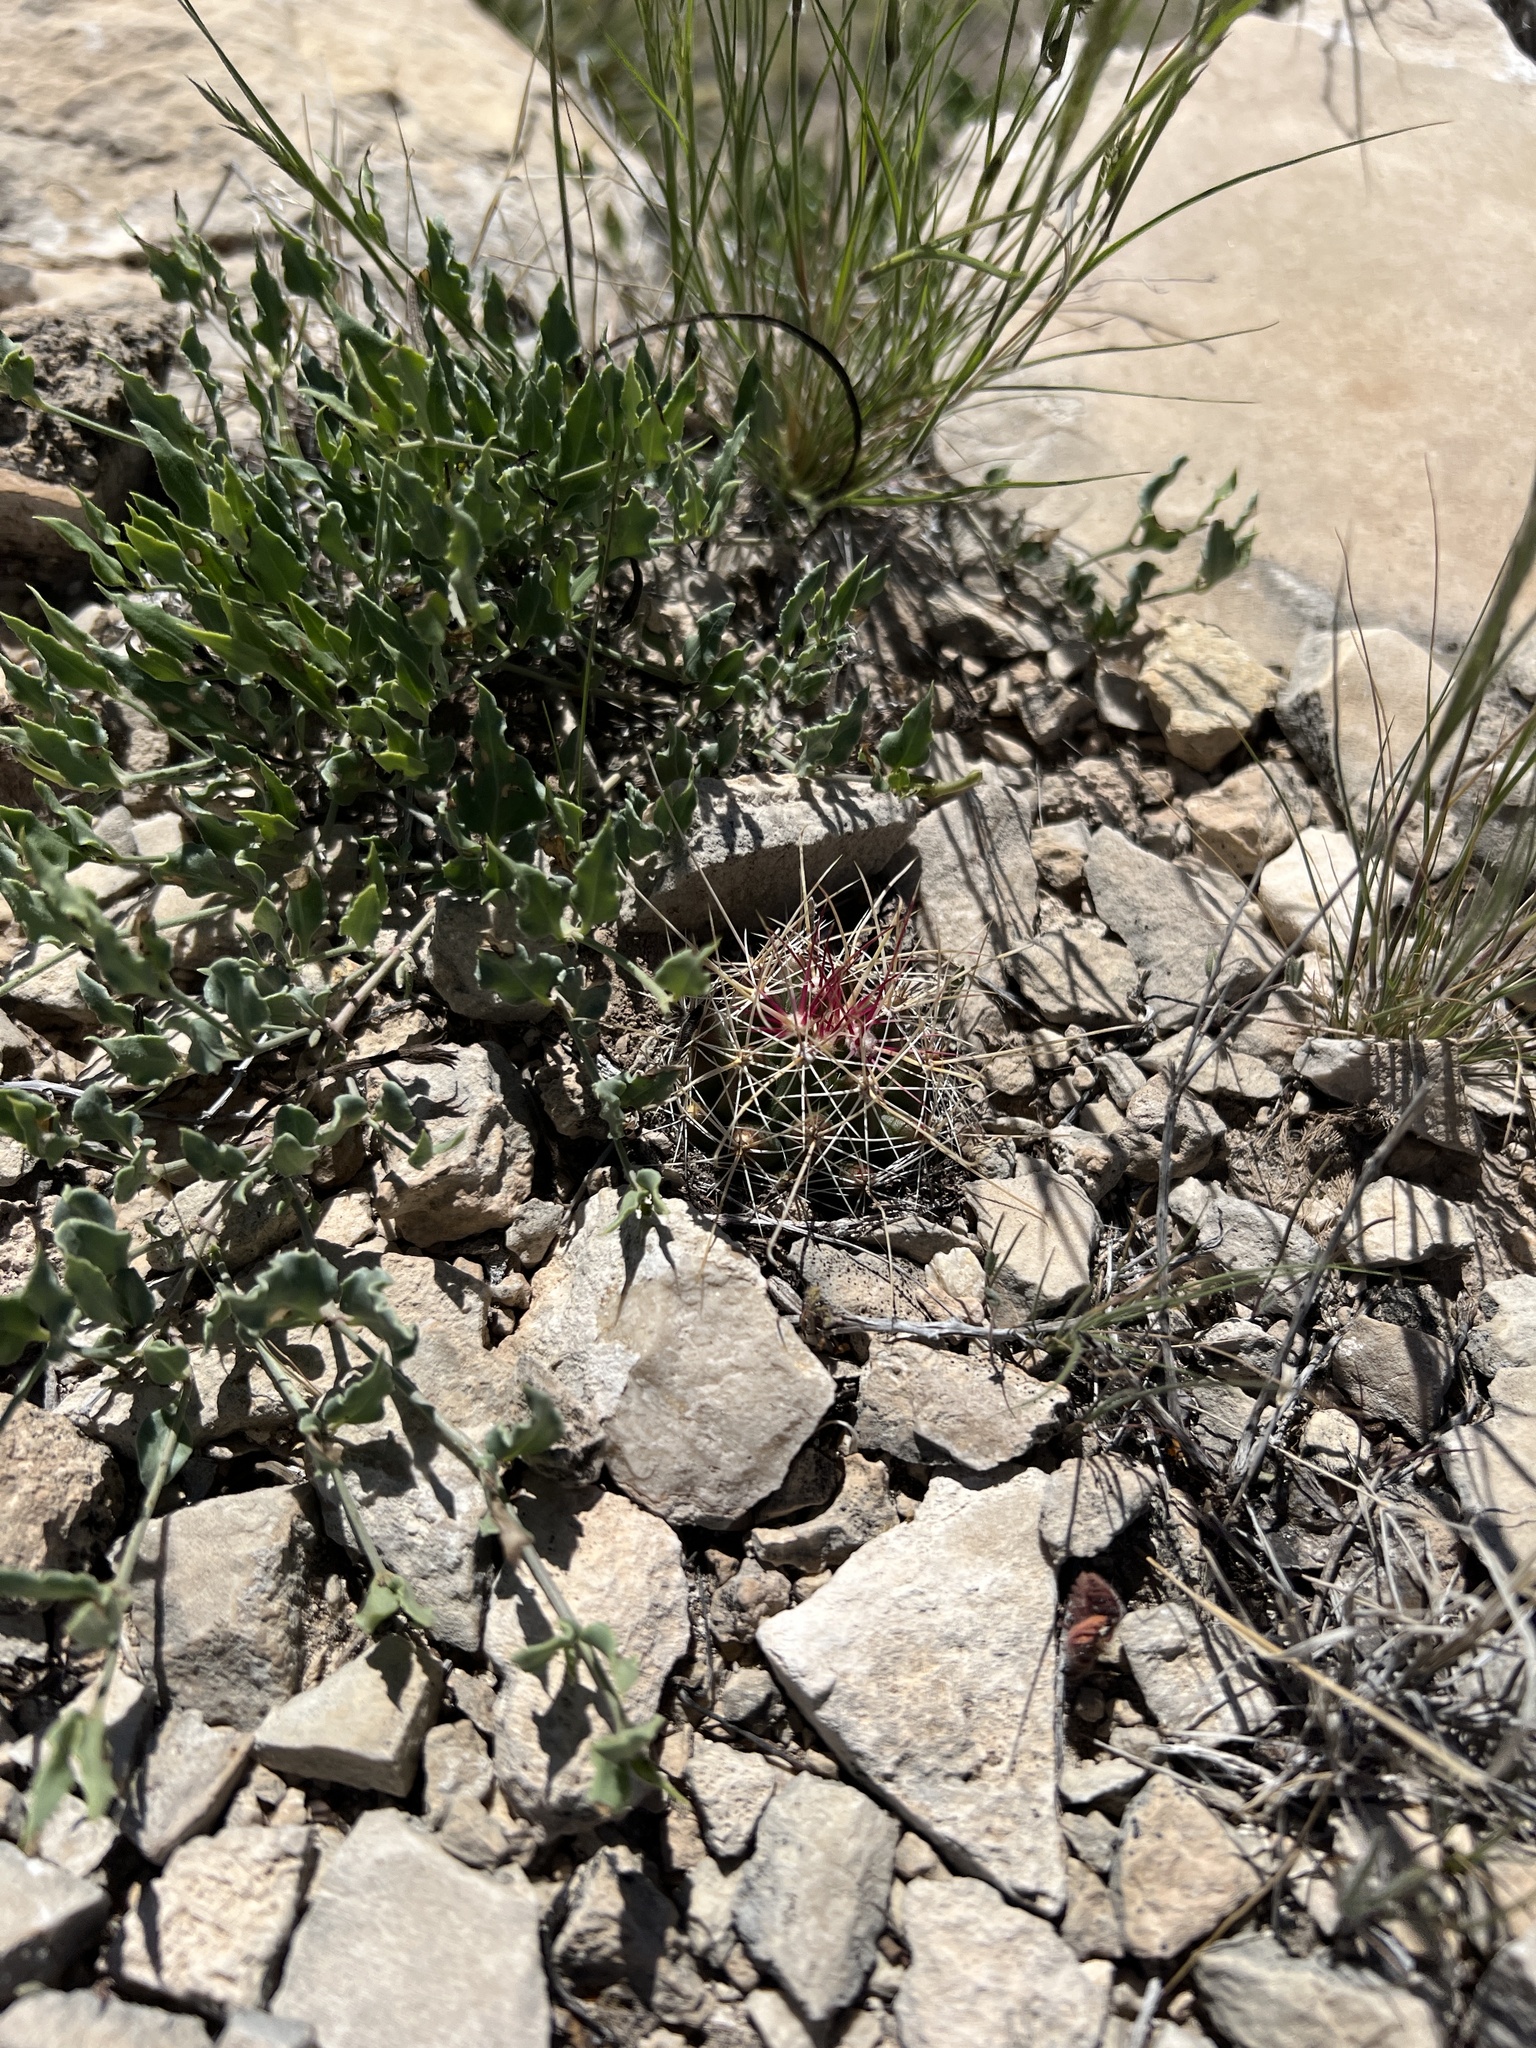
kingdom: Plantae
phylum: Tracheophyta
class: Magnoliopsida
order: Caryophyllales
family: Cactaceae
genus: Bisnaga
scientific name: Bisnaga hamatacantha
